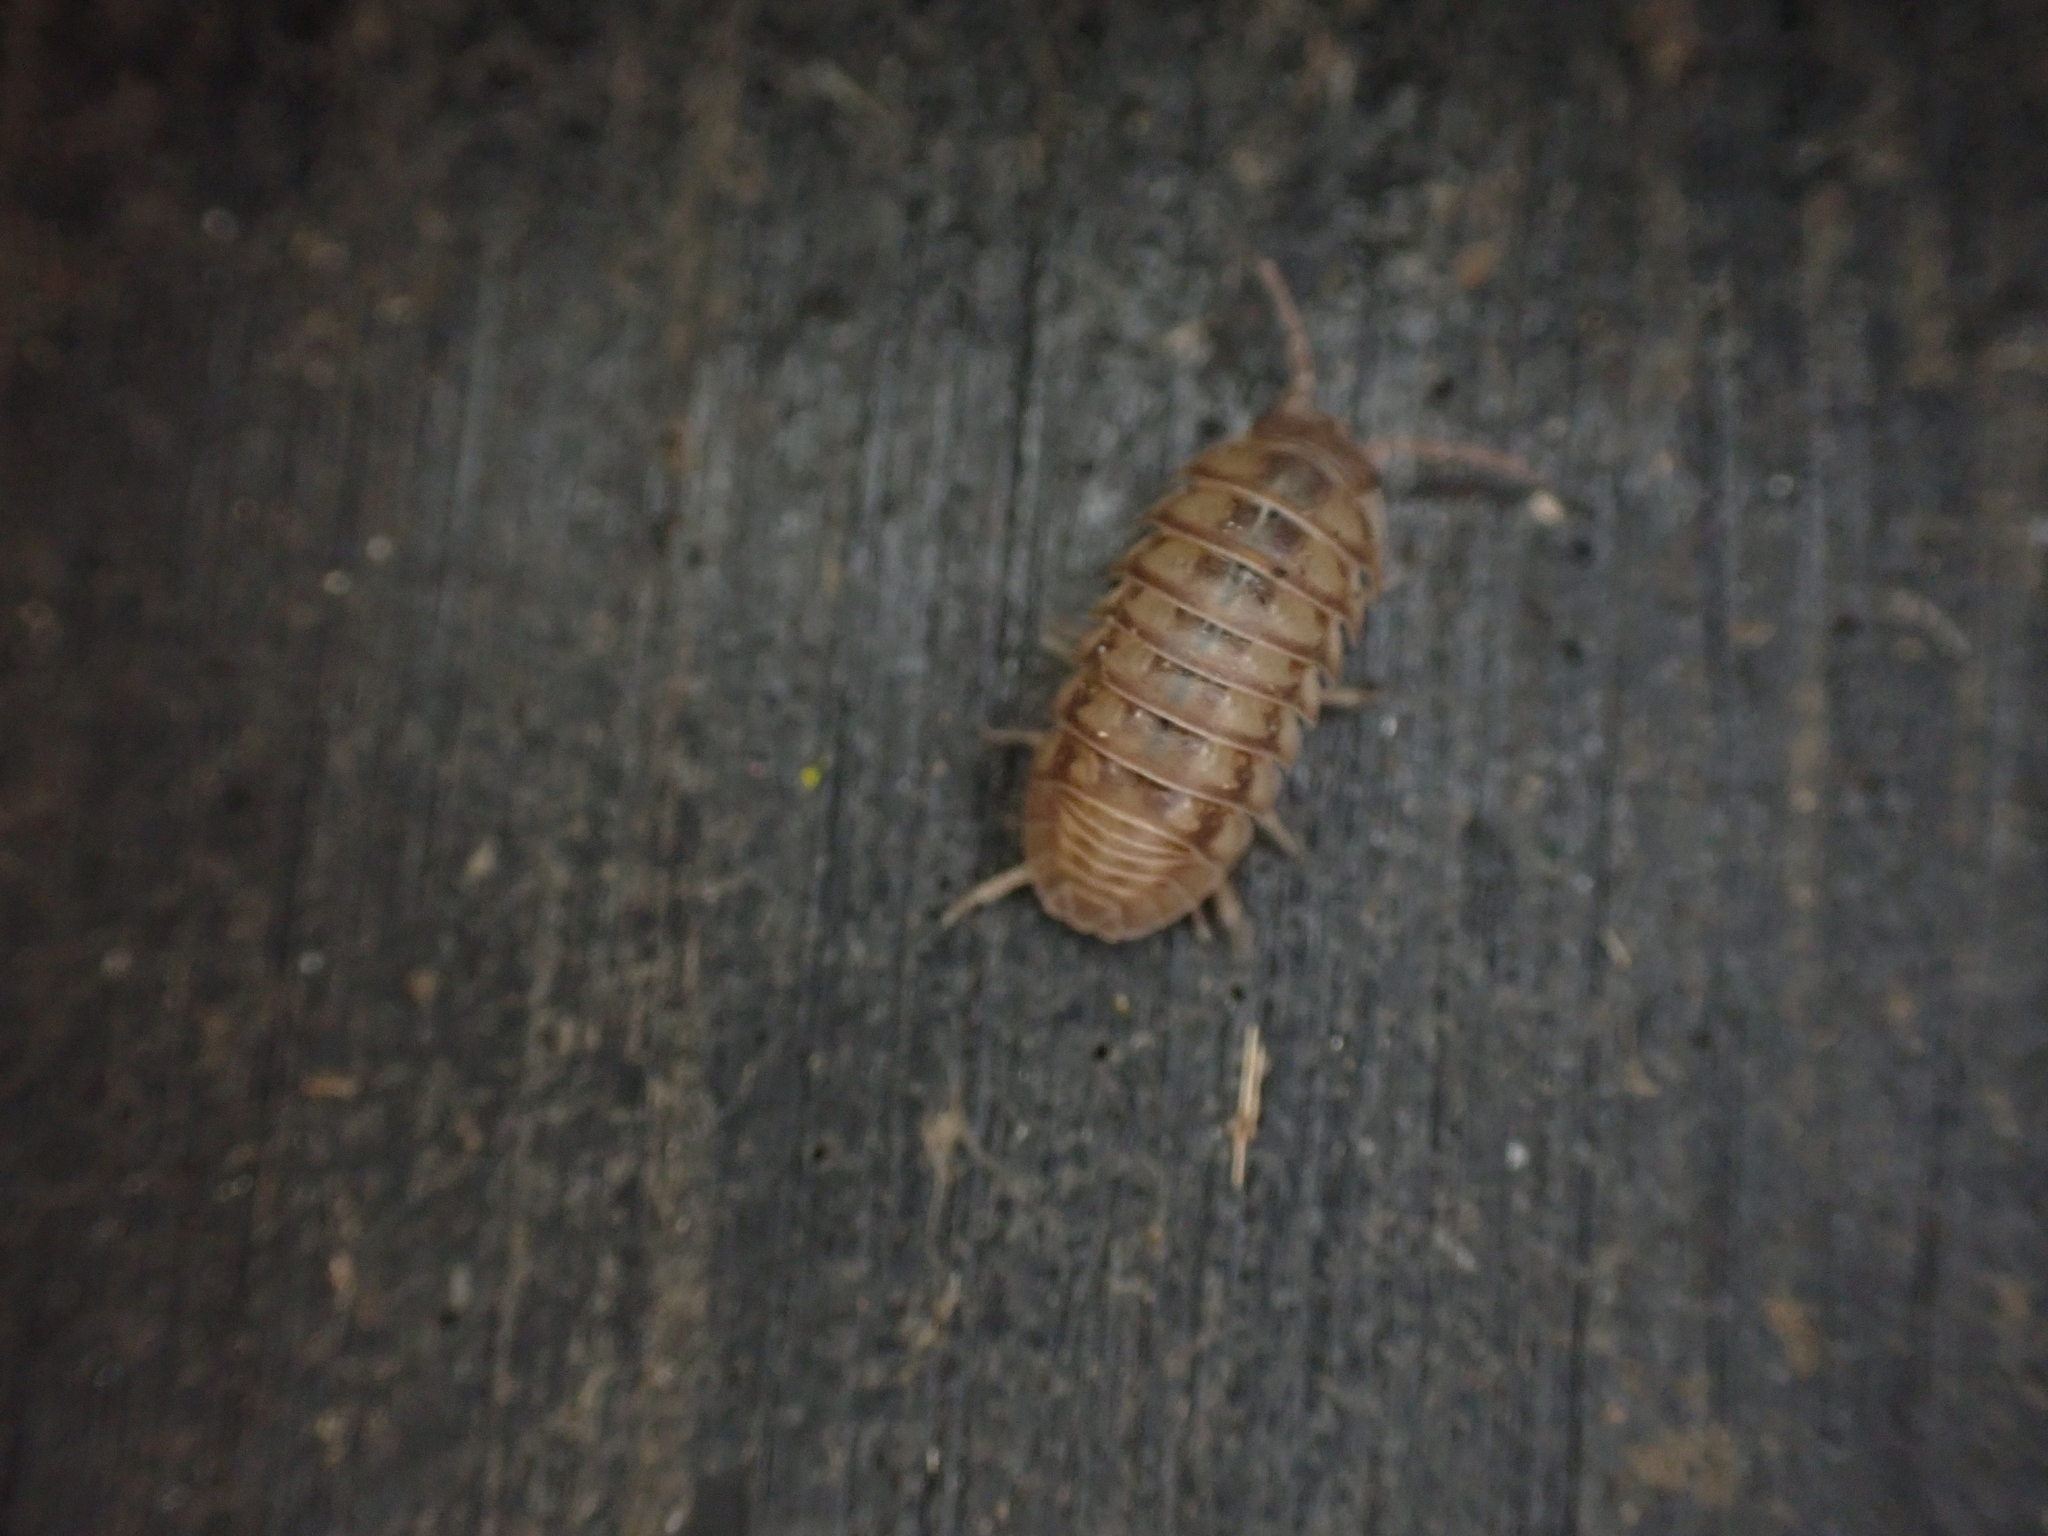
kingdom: Animalia
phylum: Arthropoda
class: Malacostraca
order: Isopoda
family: Armadillidiidae
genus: Armadillidium
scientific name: Armadillidium nasatum
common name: Isopod
